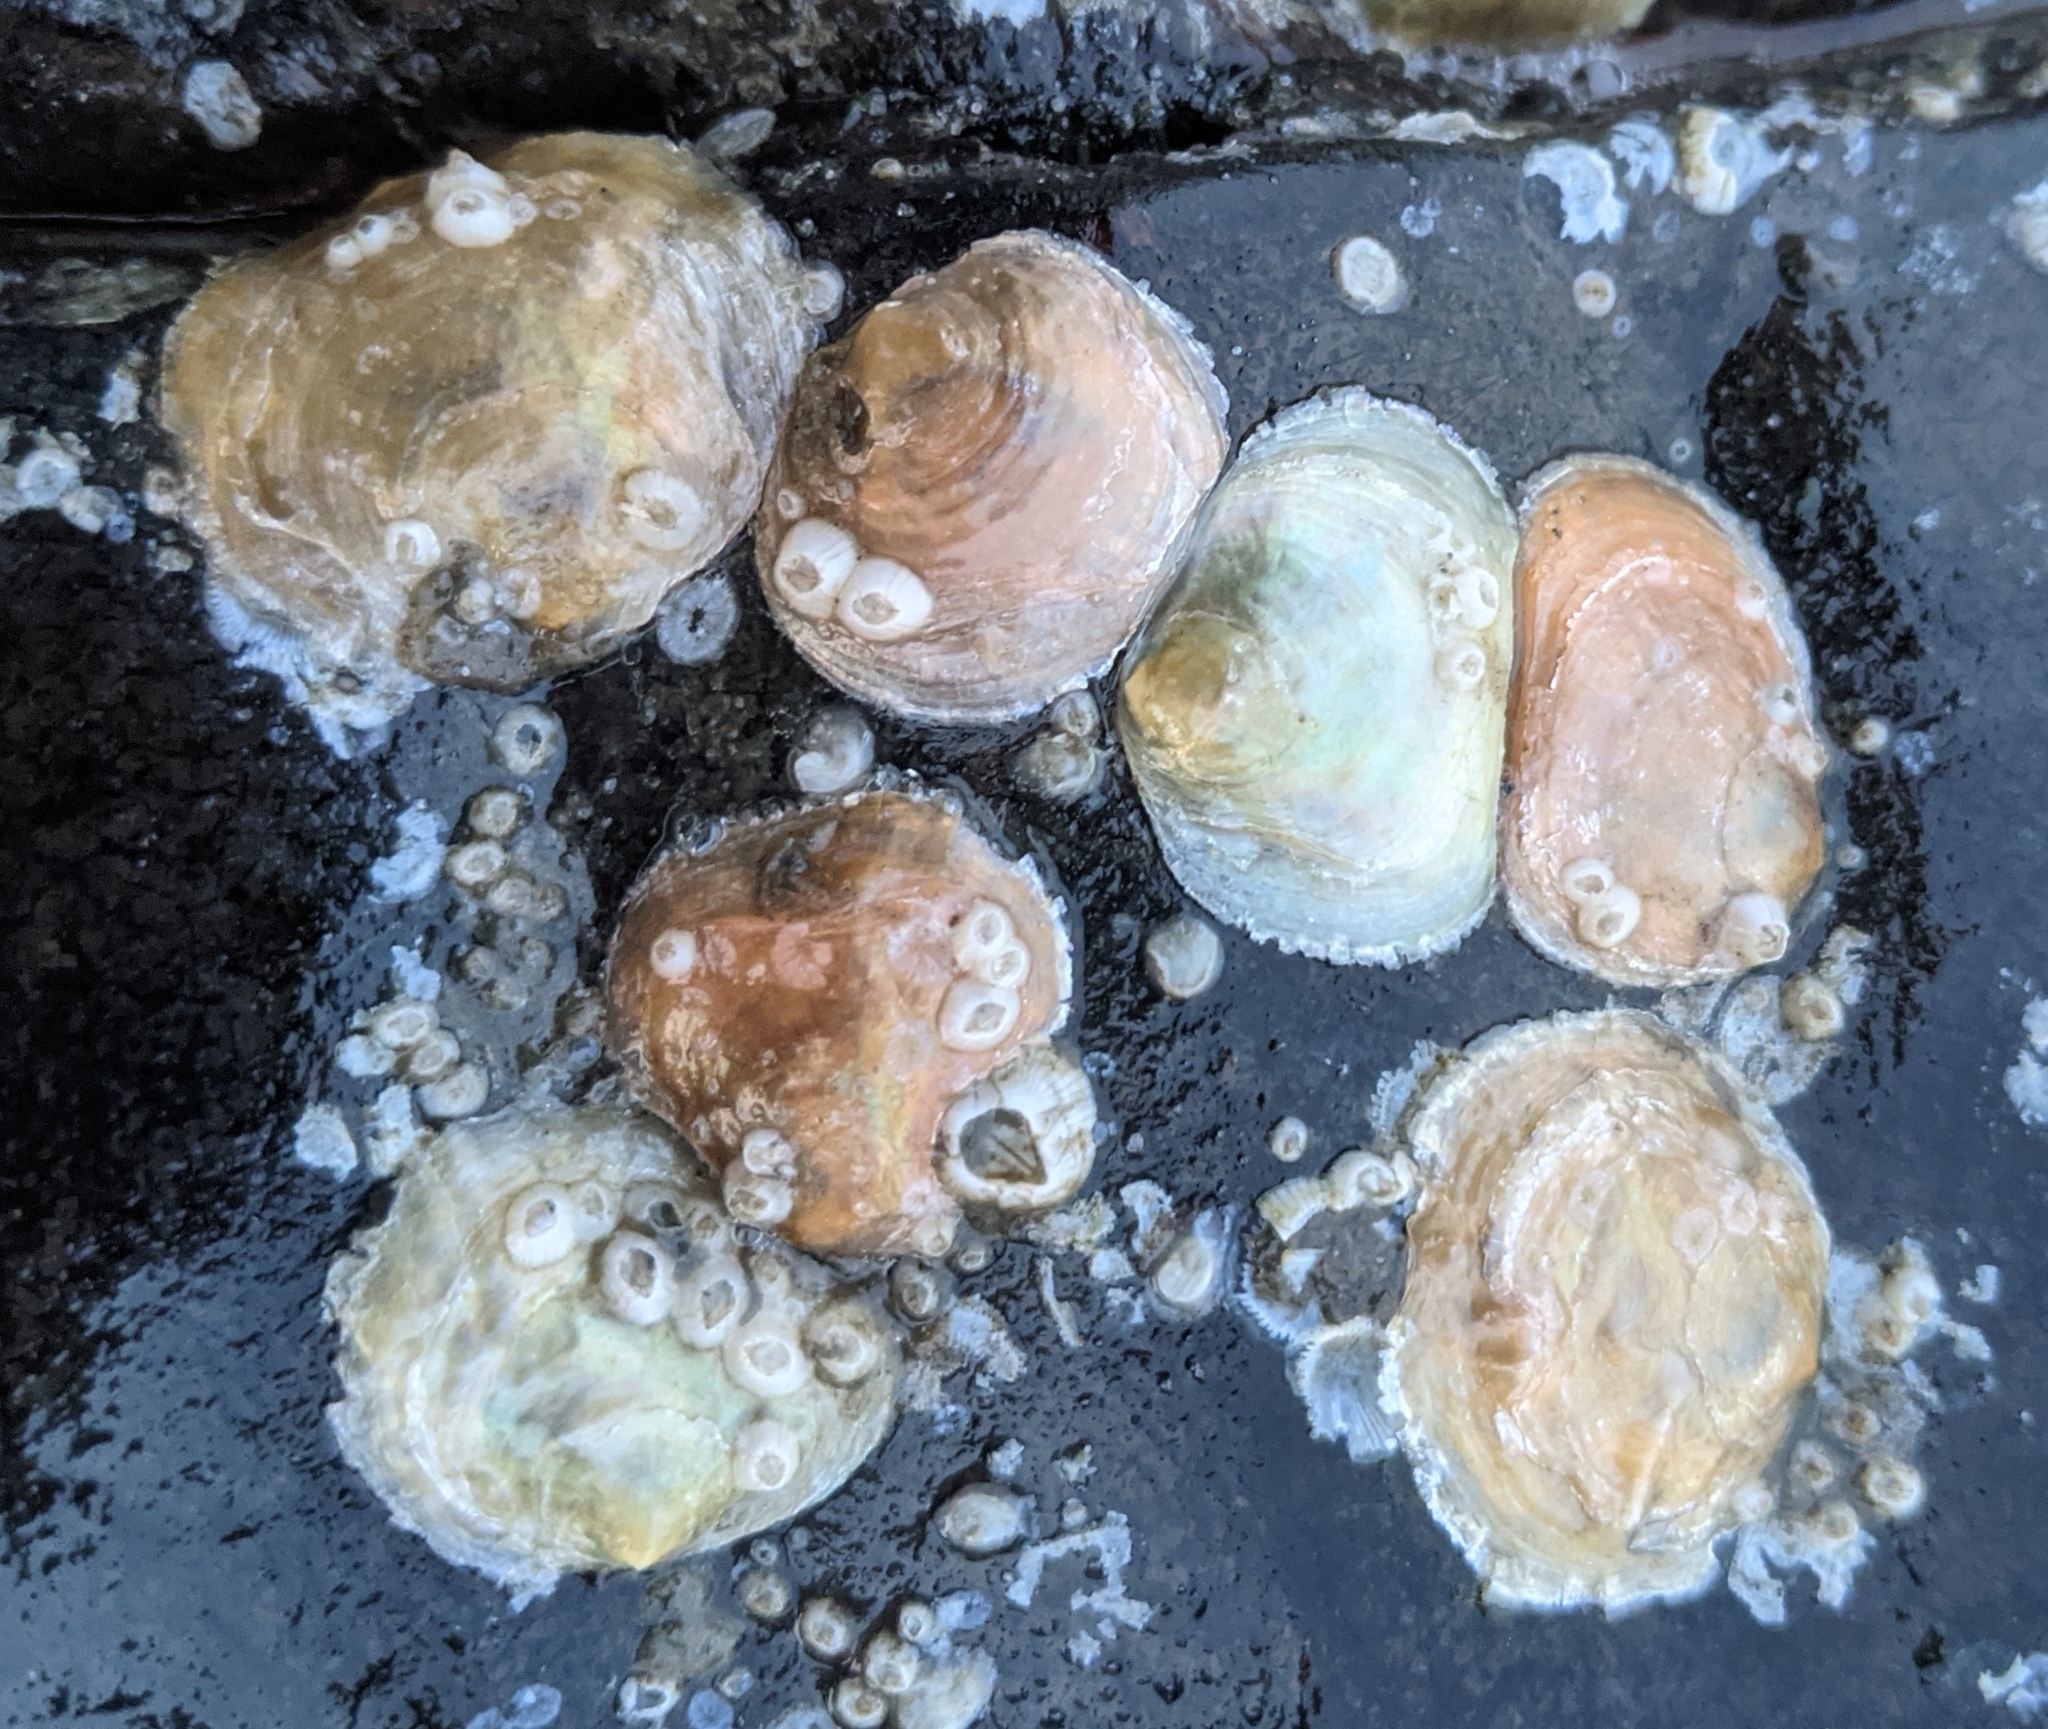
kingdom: Animalia
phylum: Mollusca
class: Bivalvia
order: Pectinida
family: Anomiidae
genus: Anomia
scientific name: Anomia simplex
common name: Common jingle shell
